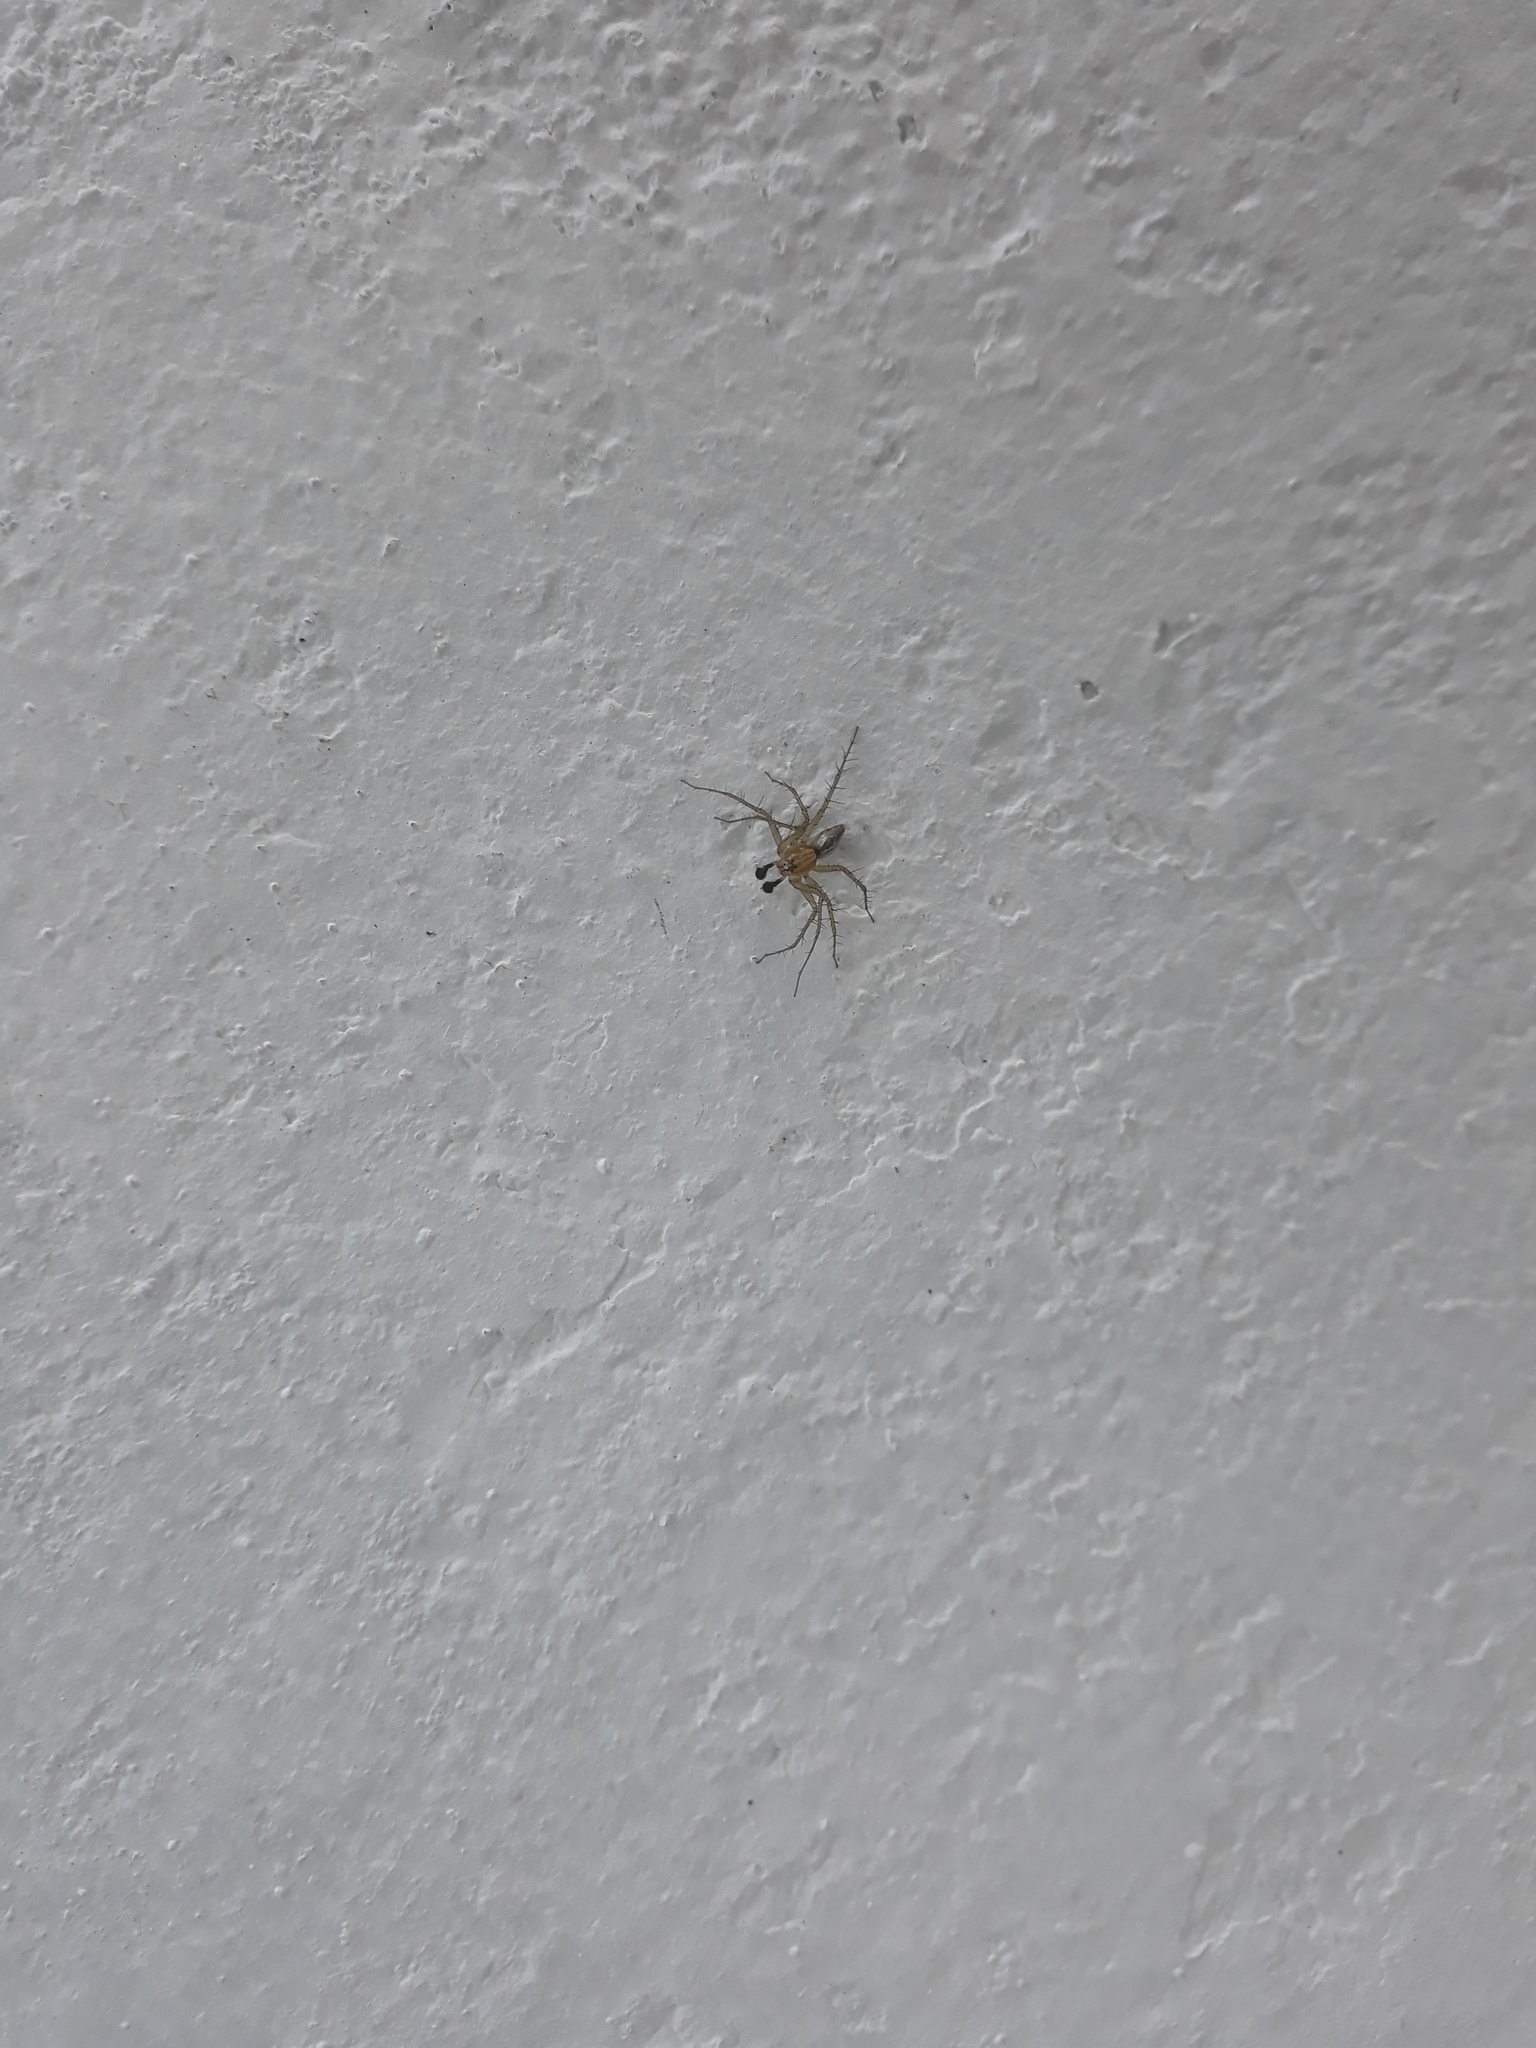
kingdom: Animalia
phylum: Arthropoda
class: Arachnida
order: Araneae
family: Oxyopidae
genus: Oxyopes
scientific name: Oxyopes salticus
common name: Lynx spiders
